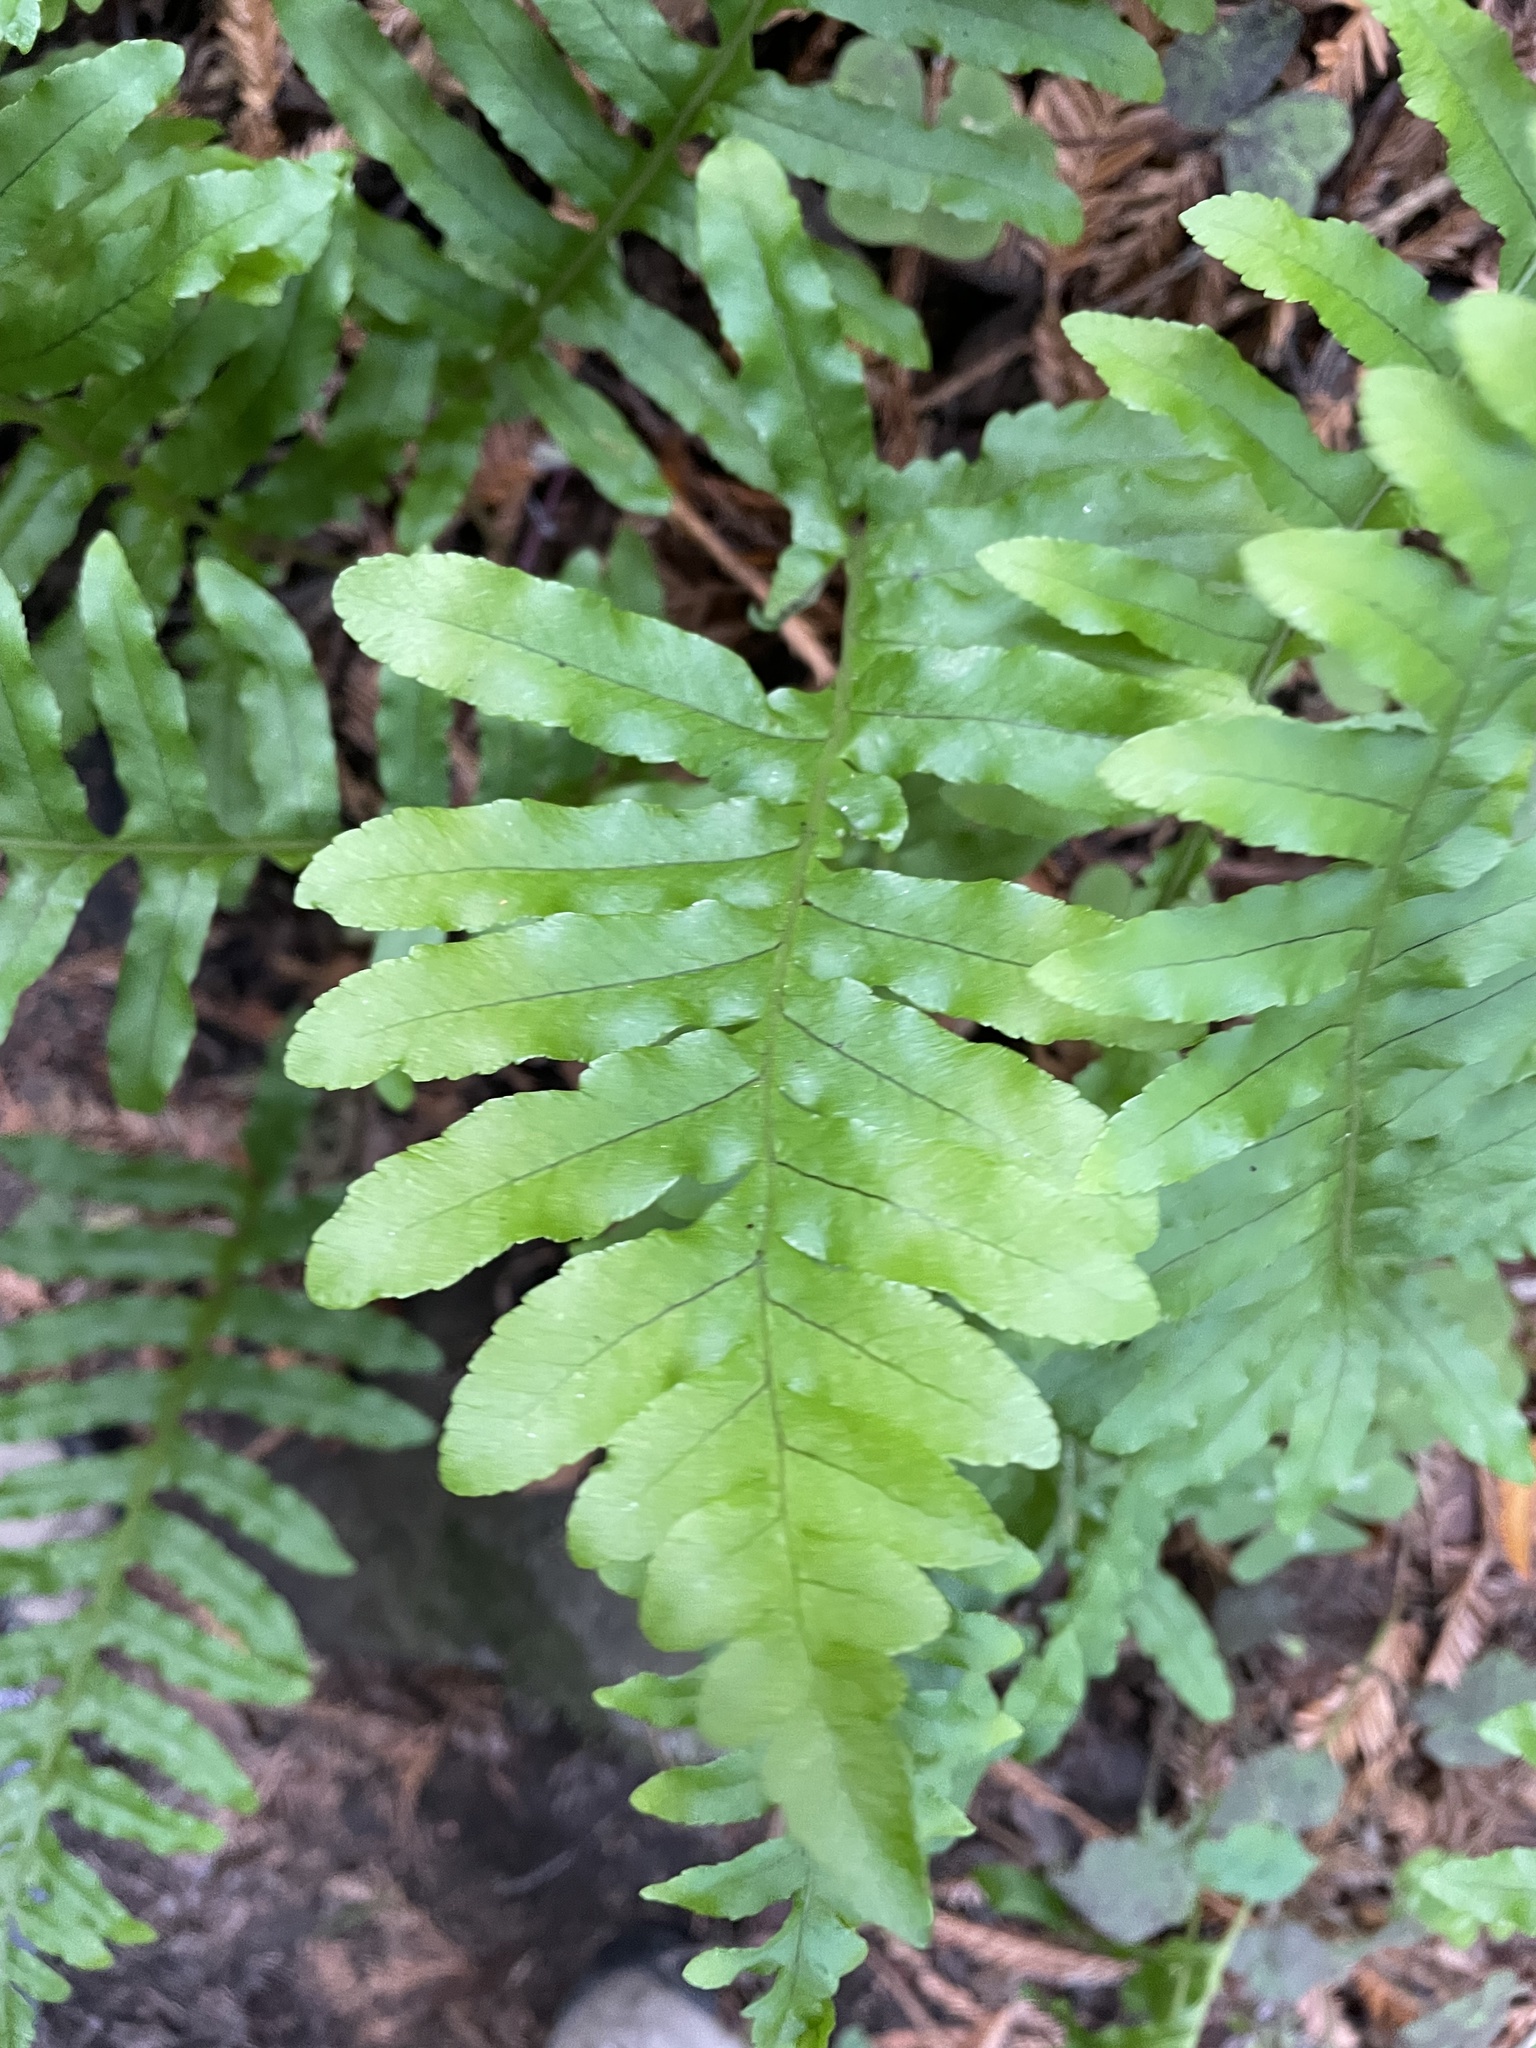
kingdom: Plantae
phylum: Tracheophyta
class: Polypodiopsida
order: Polypodiales
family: Polypodiaceae
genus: Polypodium
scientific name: Polypodium californicum
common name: California polypody
